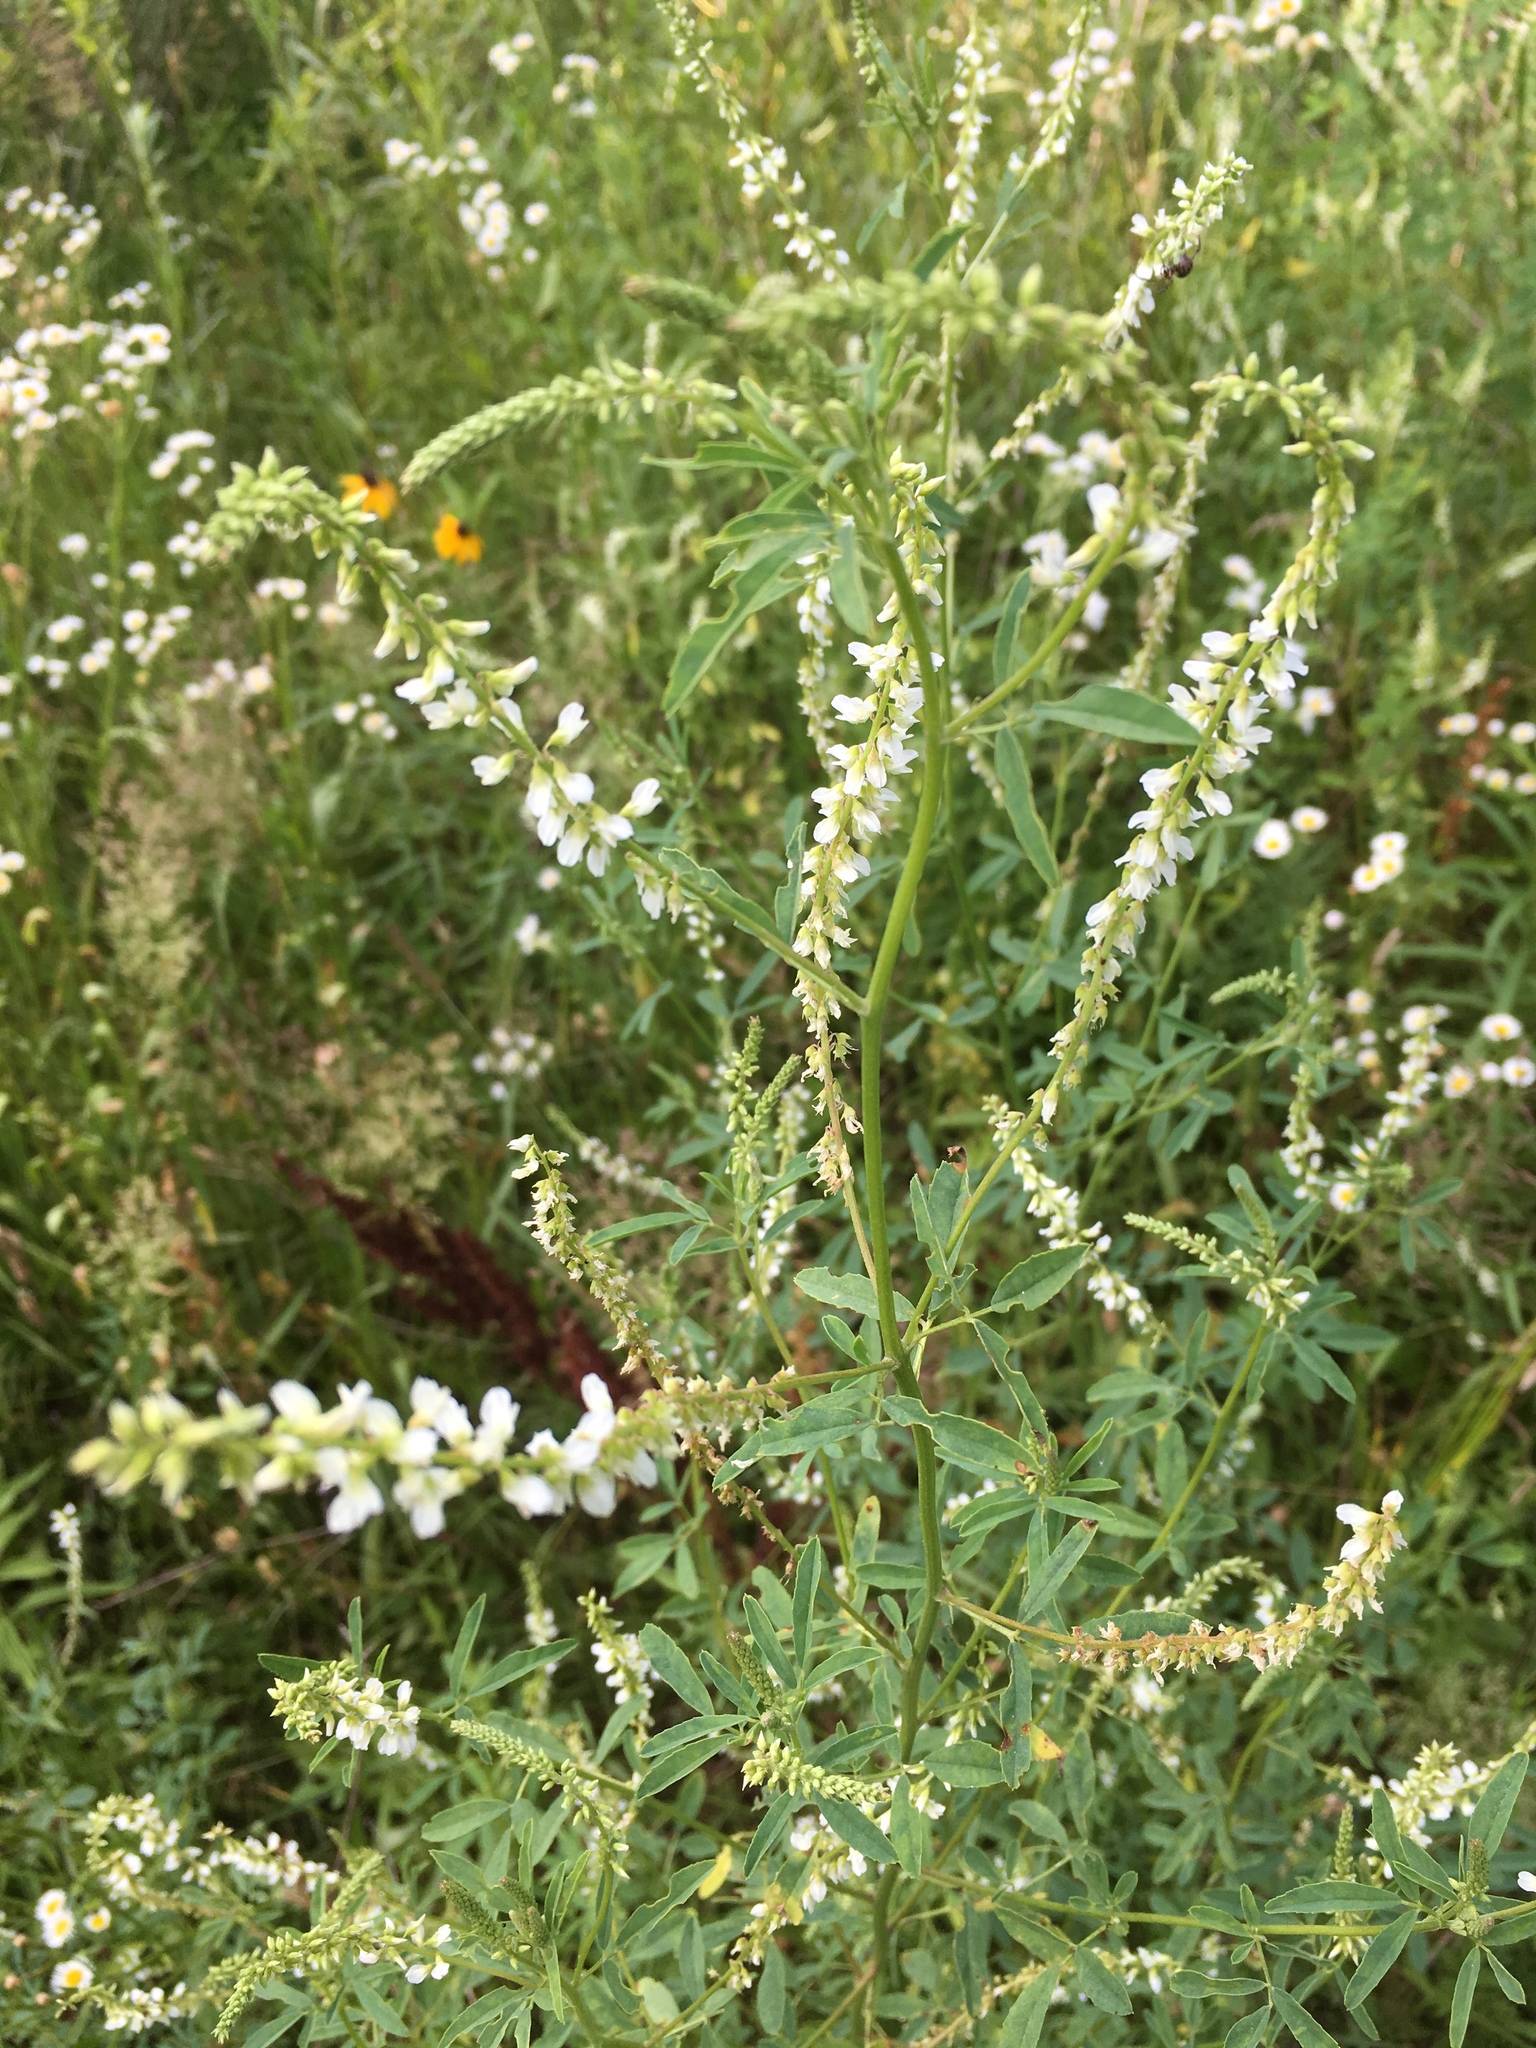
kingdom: Plantae
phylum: Tracheophyta
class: Magnoliopsida
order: Fabales
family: Fabaceae
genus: Melilotus
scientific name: Melilotus albus
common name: White melilot
